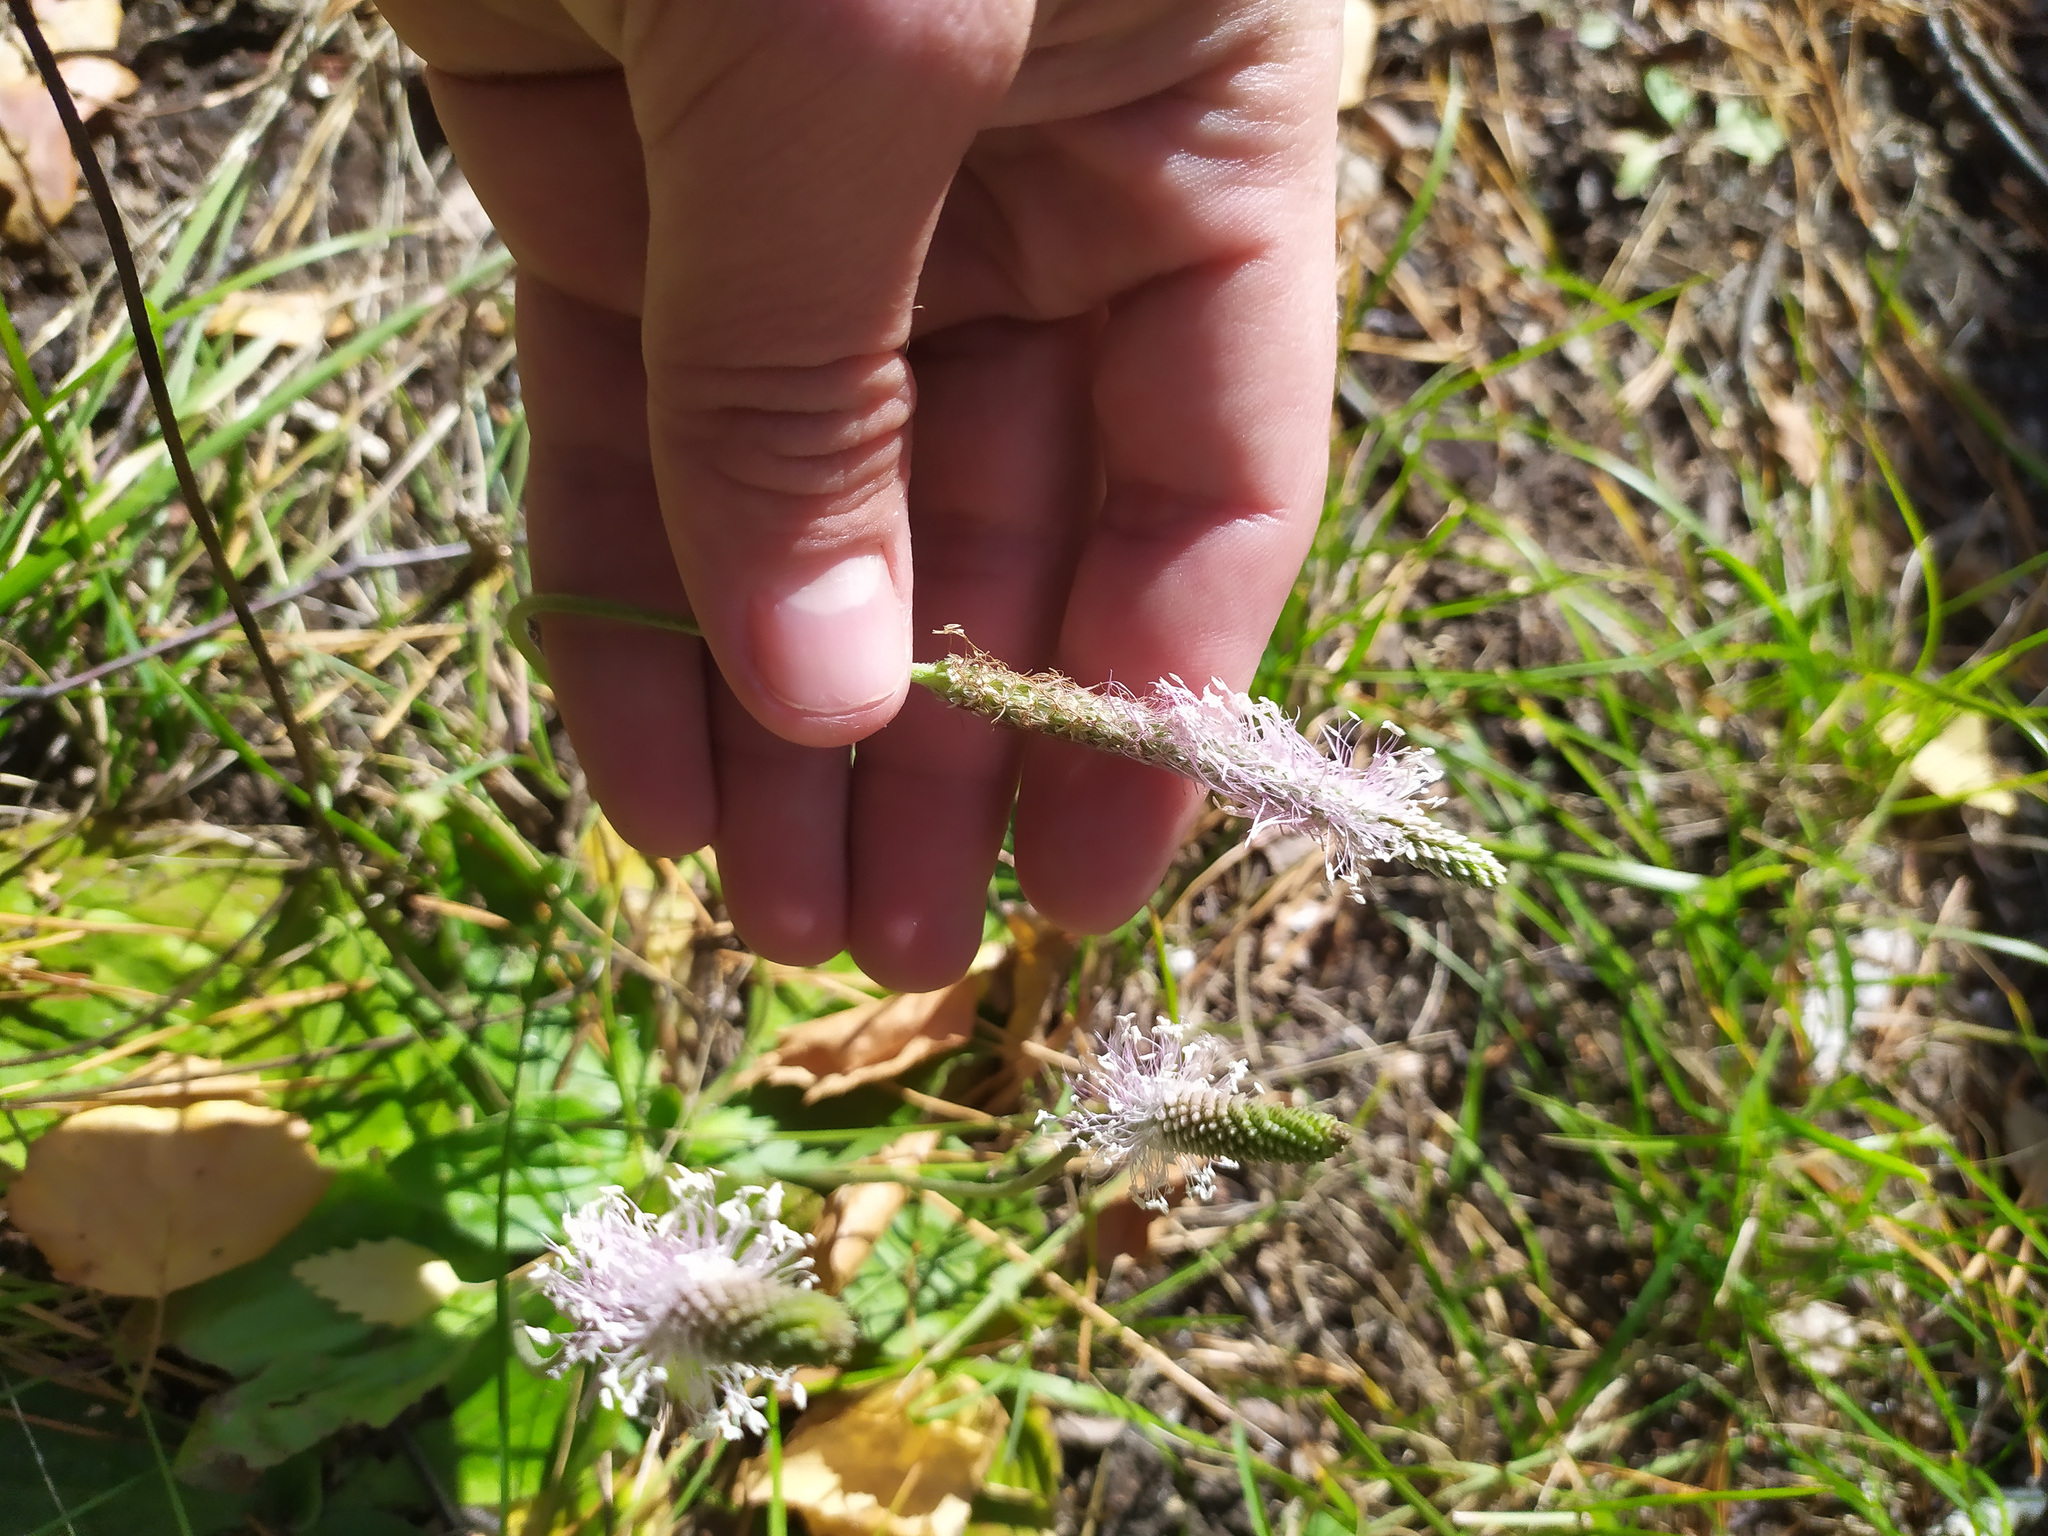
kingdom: Plantae
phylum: Tracheophyta
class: Magnoliopsida
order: Lamiales
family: Plantaginaceae
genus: Plantago
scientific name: Plantago media
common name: Hoary plantain
